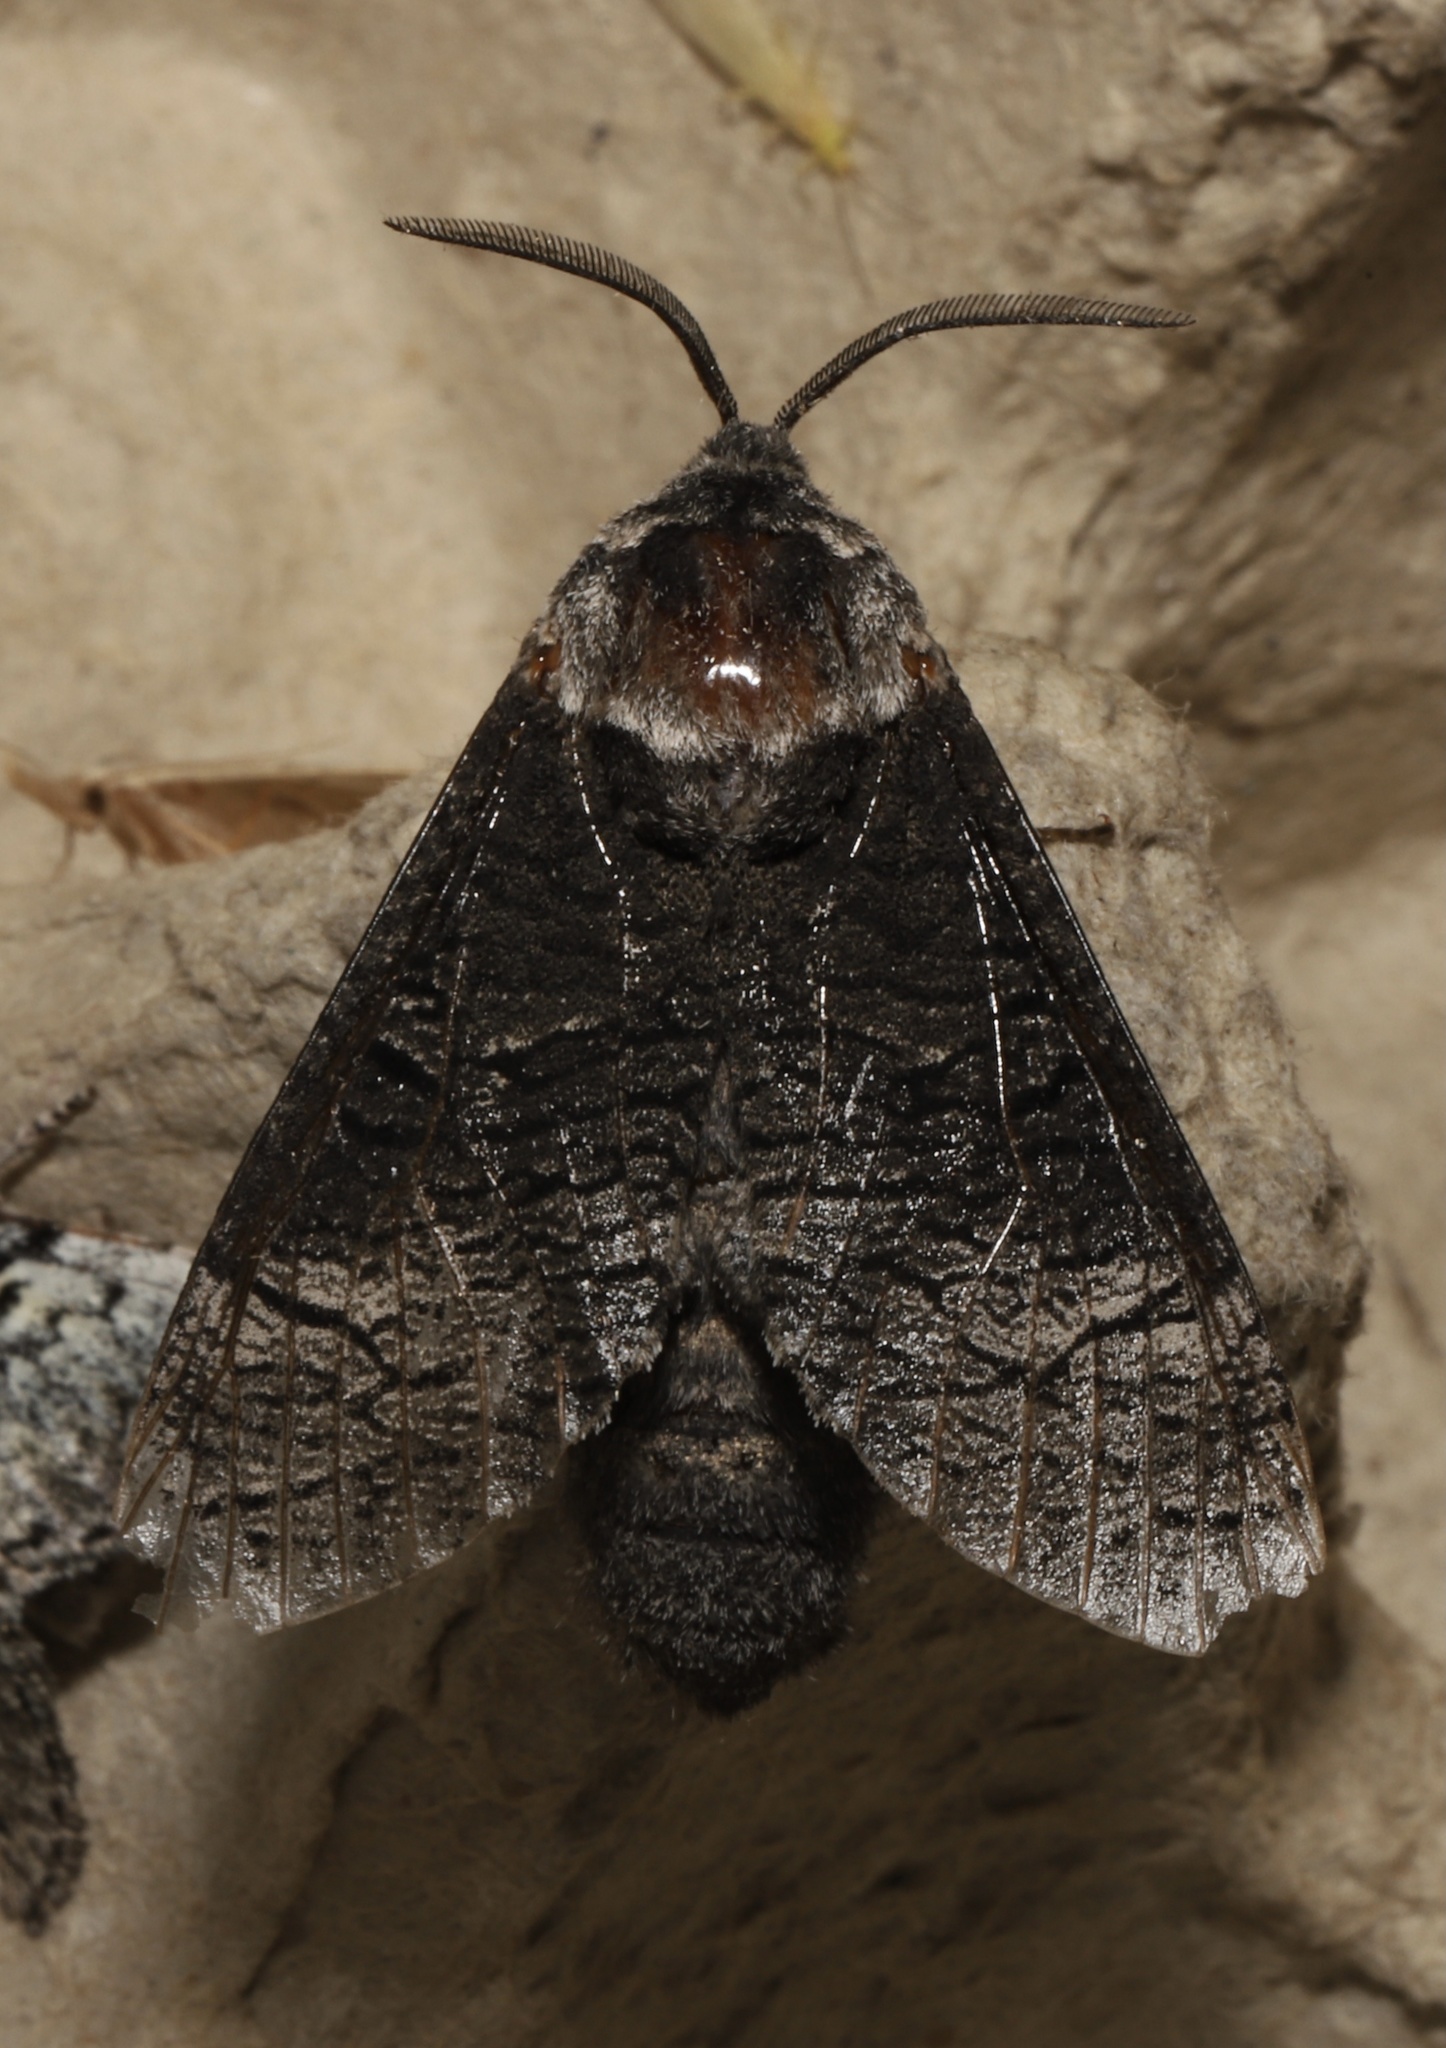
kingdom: Animalia
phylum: Arthropoda
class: Insecta
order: Lepidoptera
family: Cossidae
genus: Acossus
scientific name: Acossus centerensis
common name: Poplar carpenterworm moth
